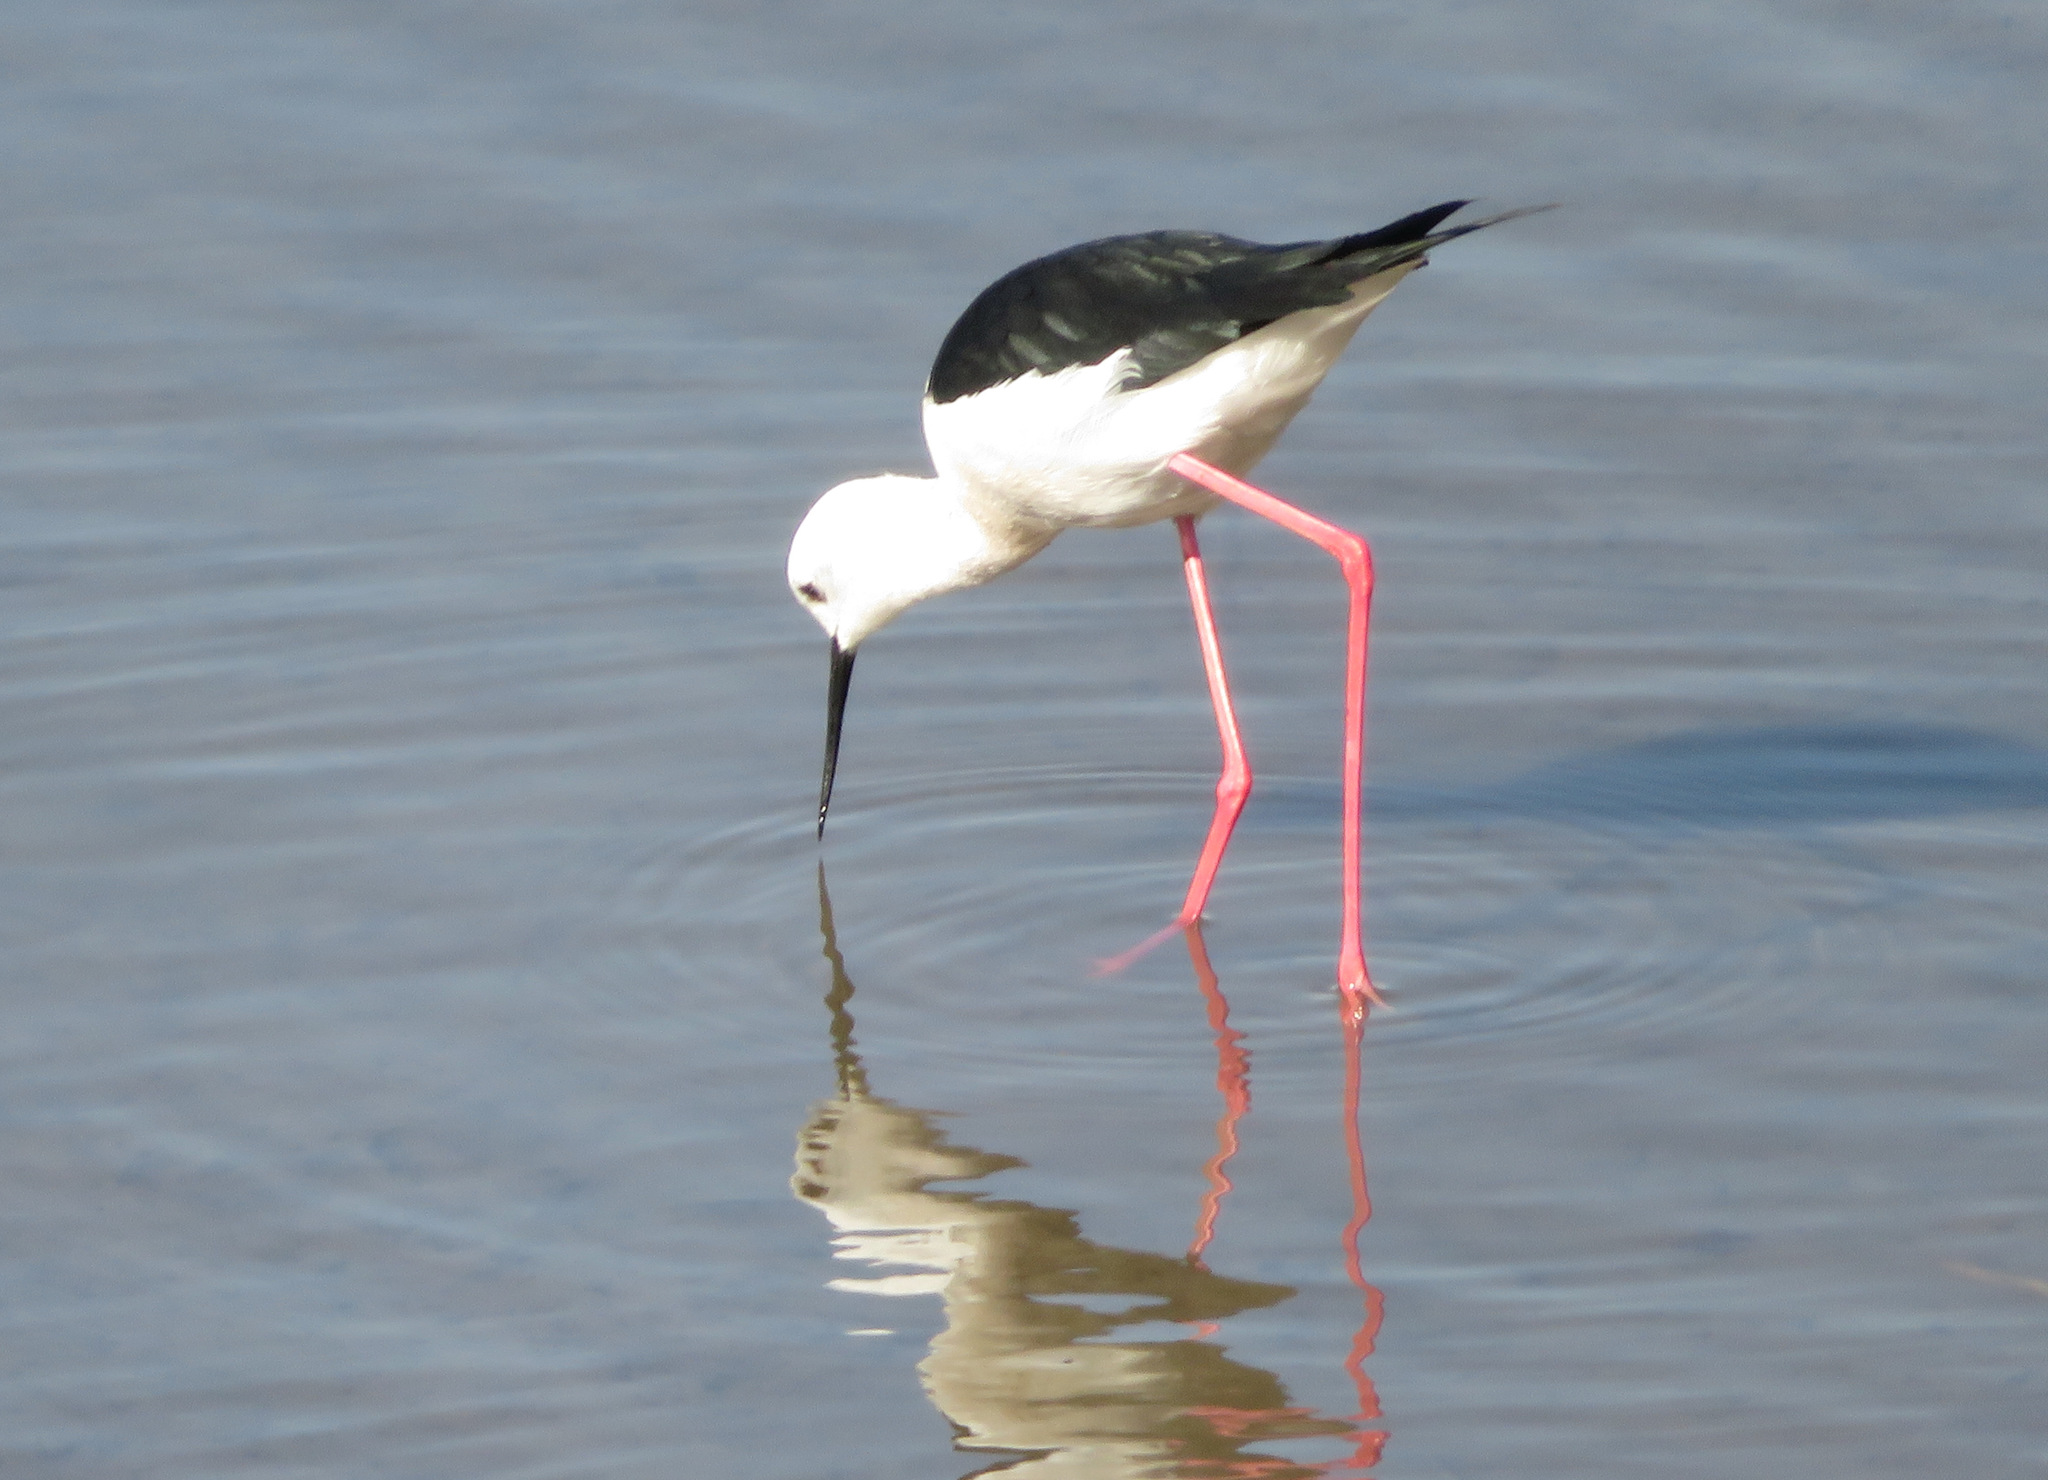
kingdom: Animalia
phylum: Chordata
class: Aves
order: Charadriiformes
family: Recurvirostridae
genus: Himantopus
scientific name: Himantopus himantopus
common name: Black-winged stilt
